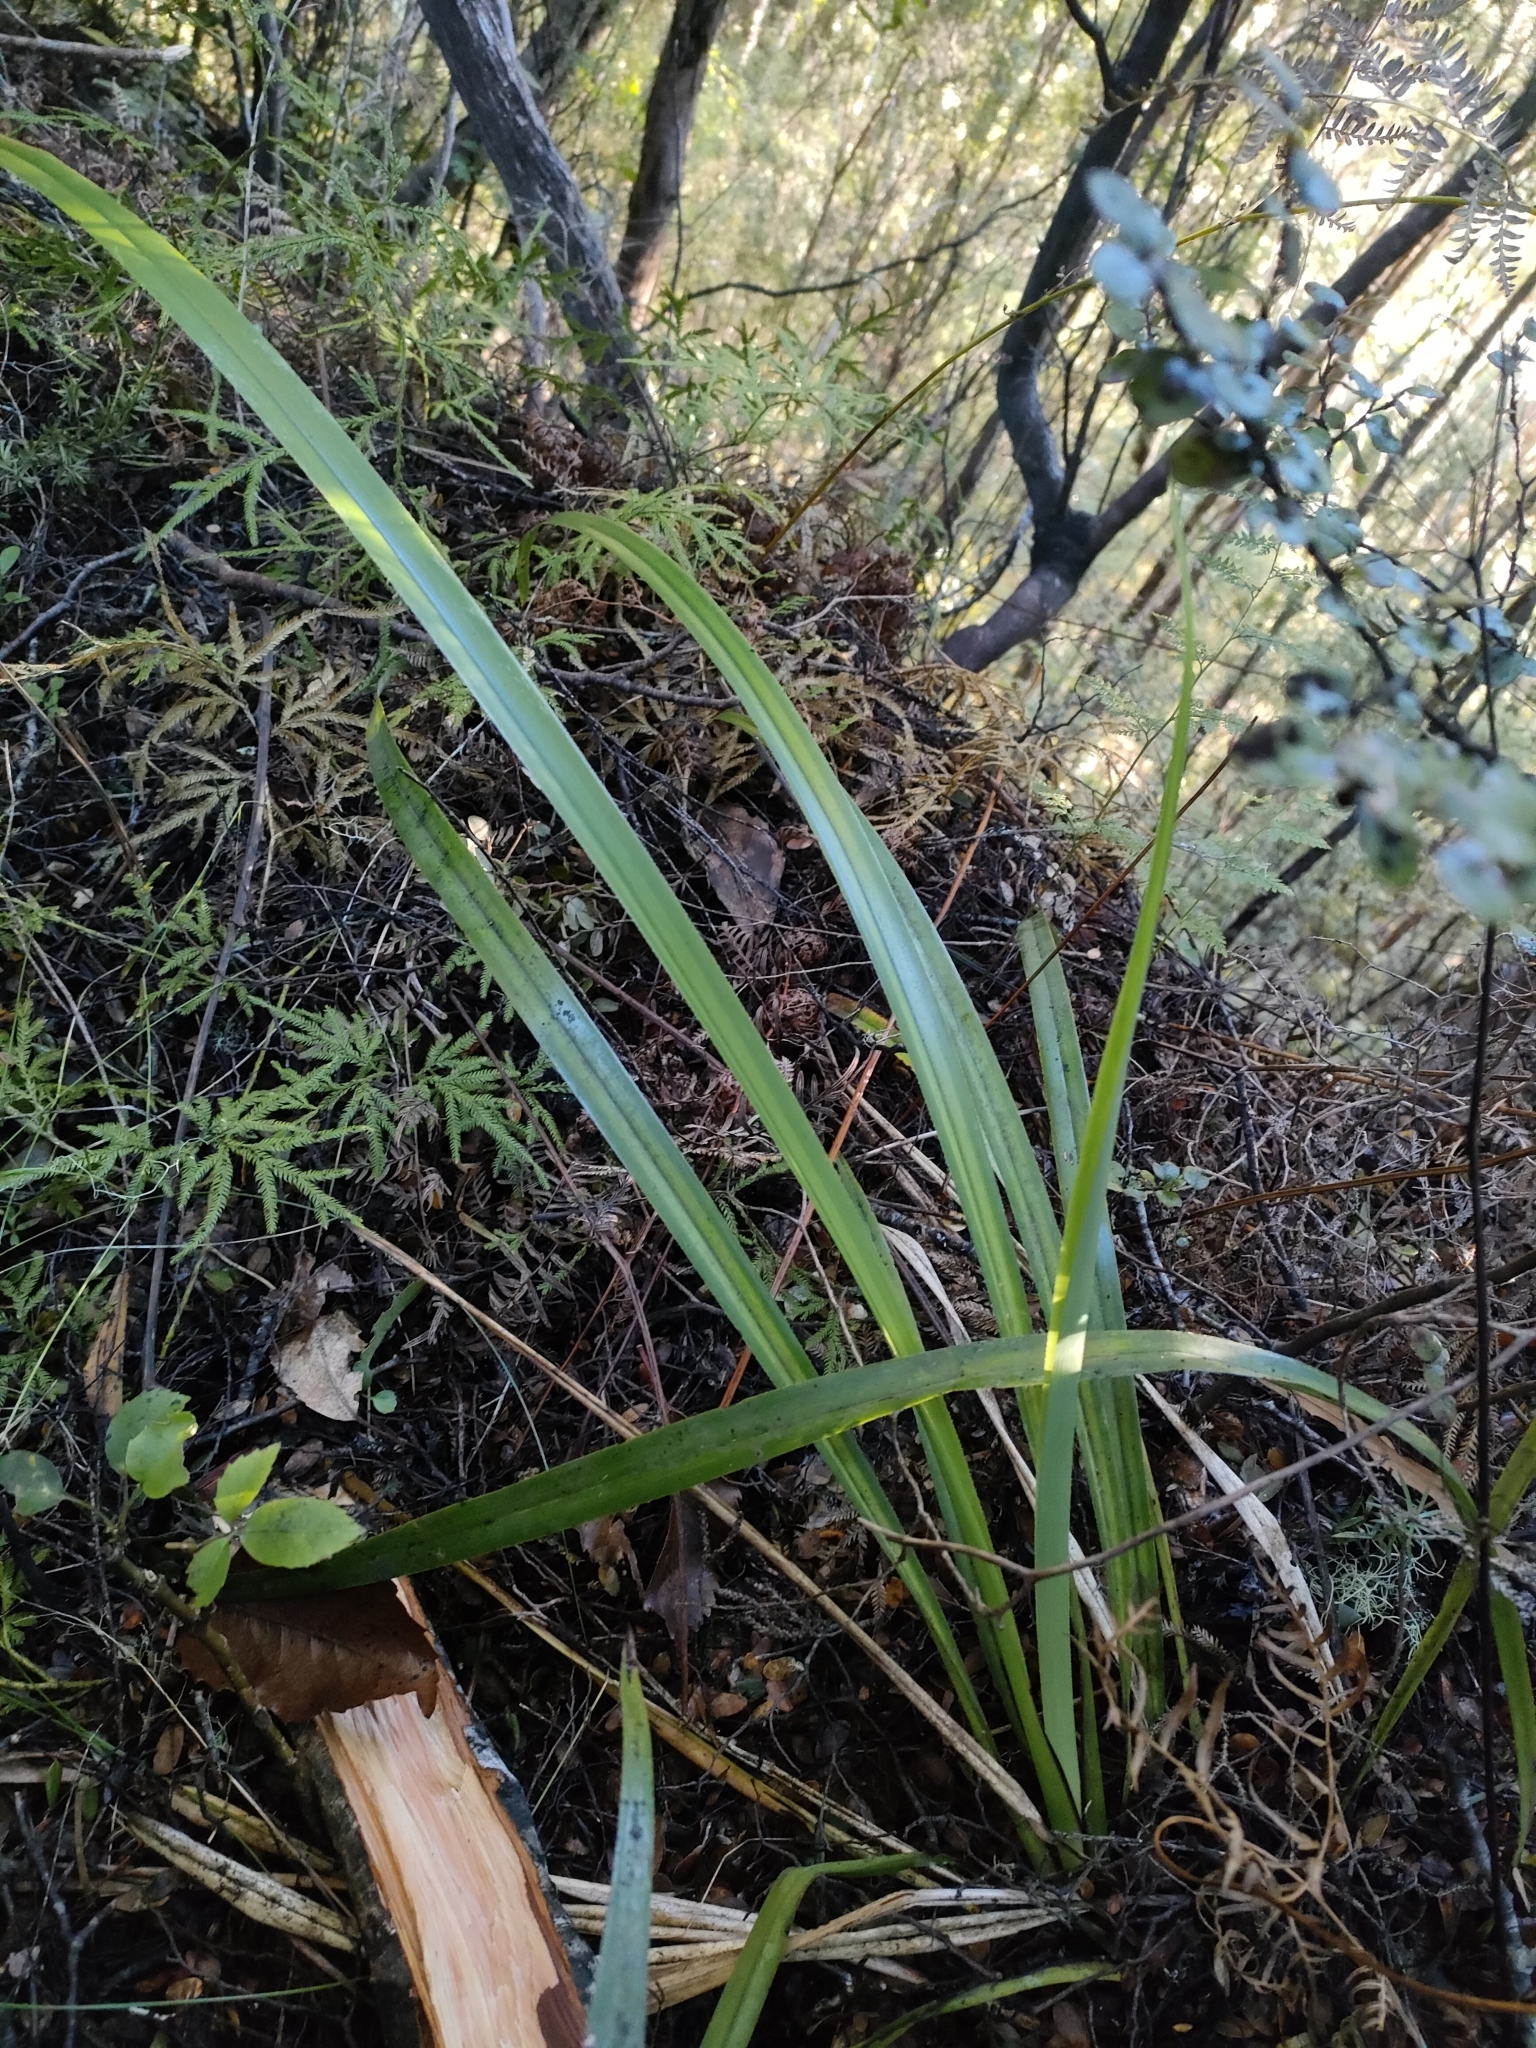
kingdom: Plantae
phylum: Tracheophyta
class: Liliopsida
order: Asparagales
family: Asphodelaceae
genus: Dianella
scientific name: Dianella nigra
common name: New zealand-blueberry
